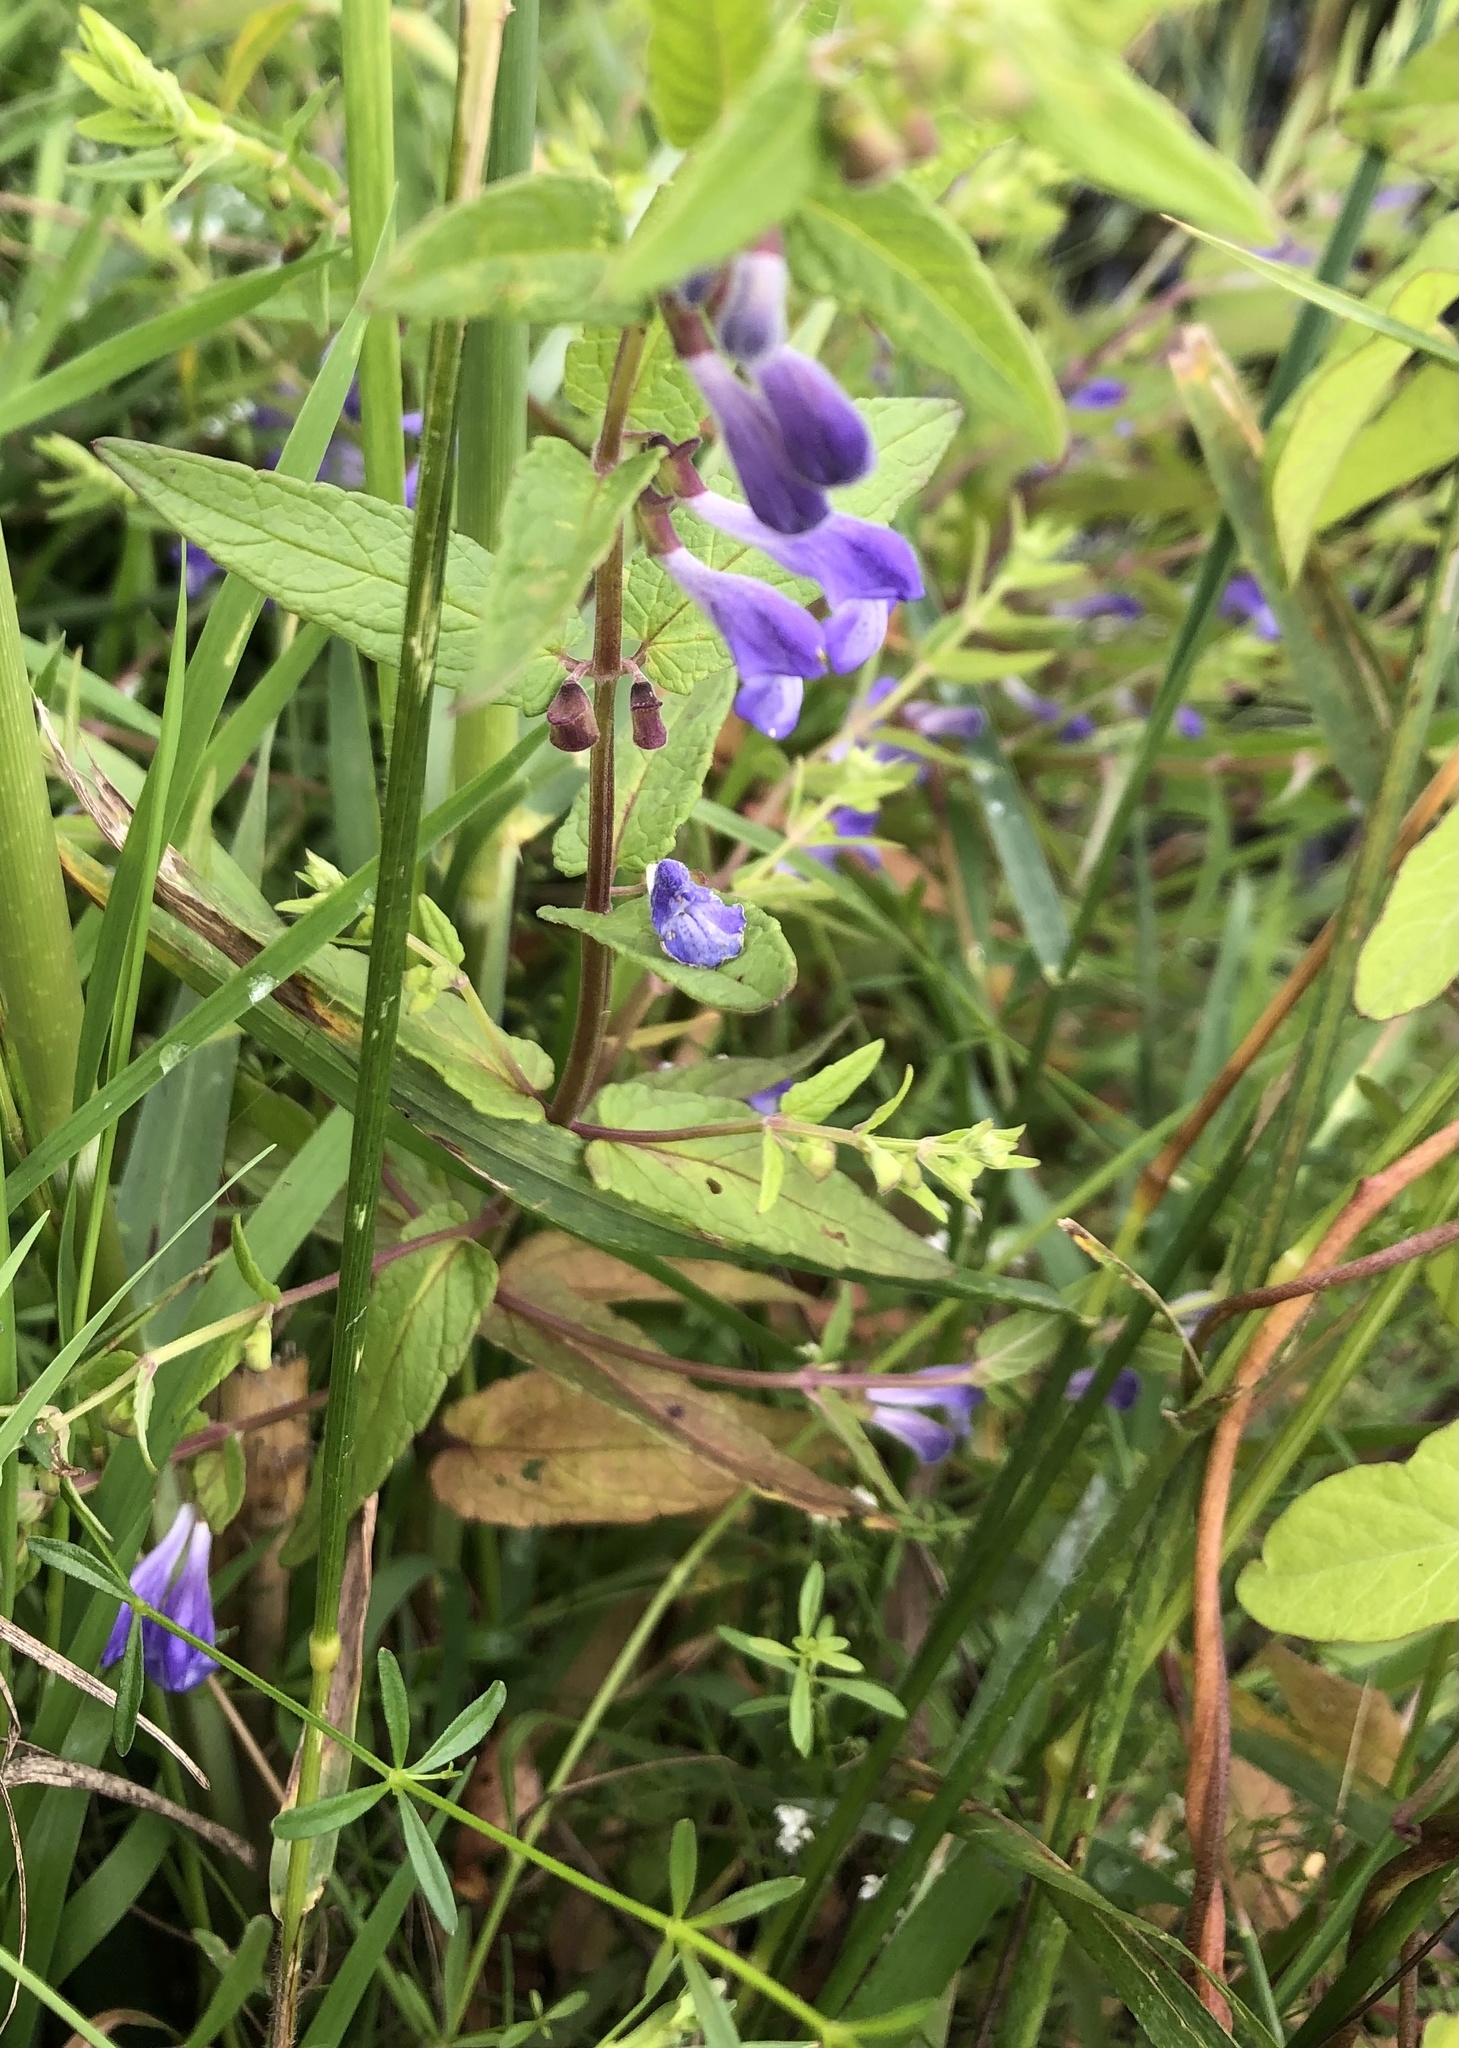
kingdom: Plantae
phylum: Tracheophyta
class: Magnoliopsida
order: Lamiales
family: Lamiaceae
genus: Scutellaria
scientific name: Scutellaria galericulata
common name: Skullcap
